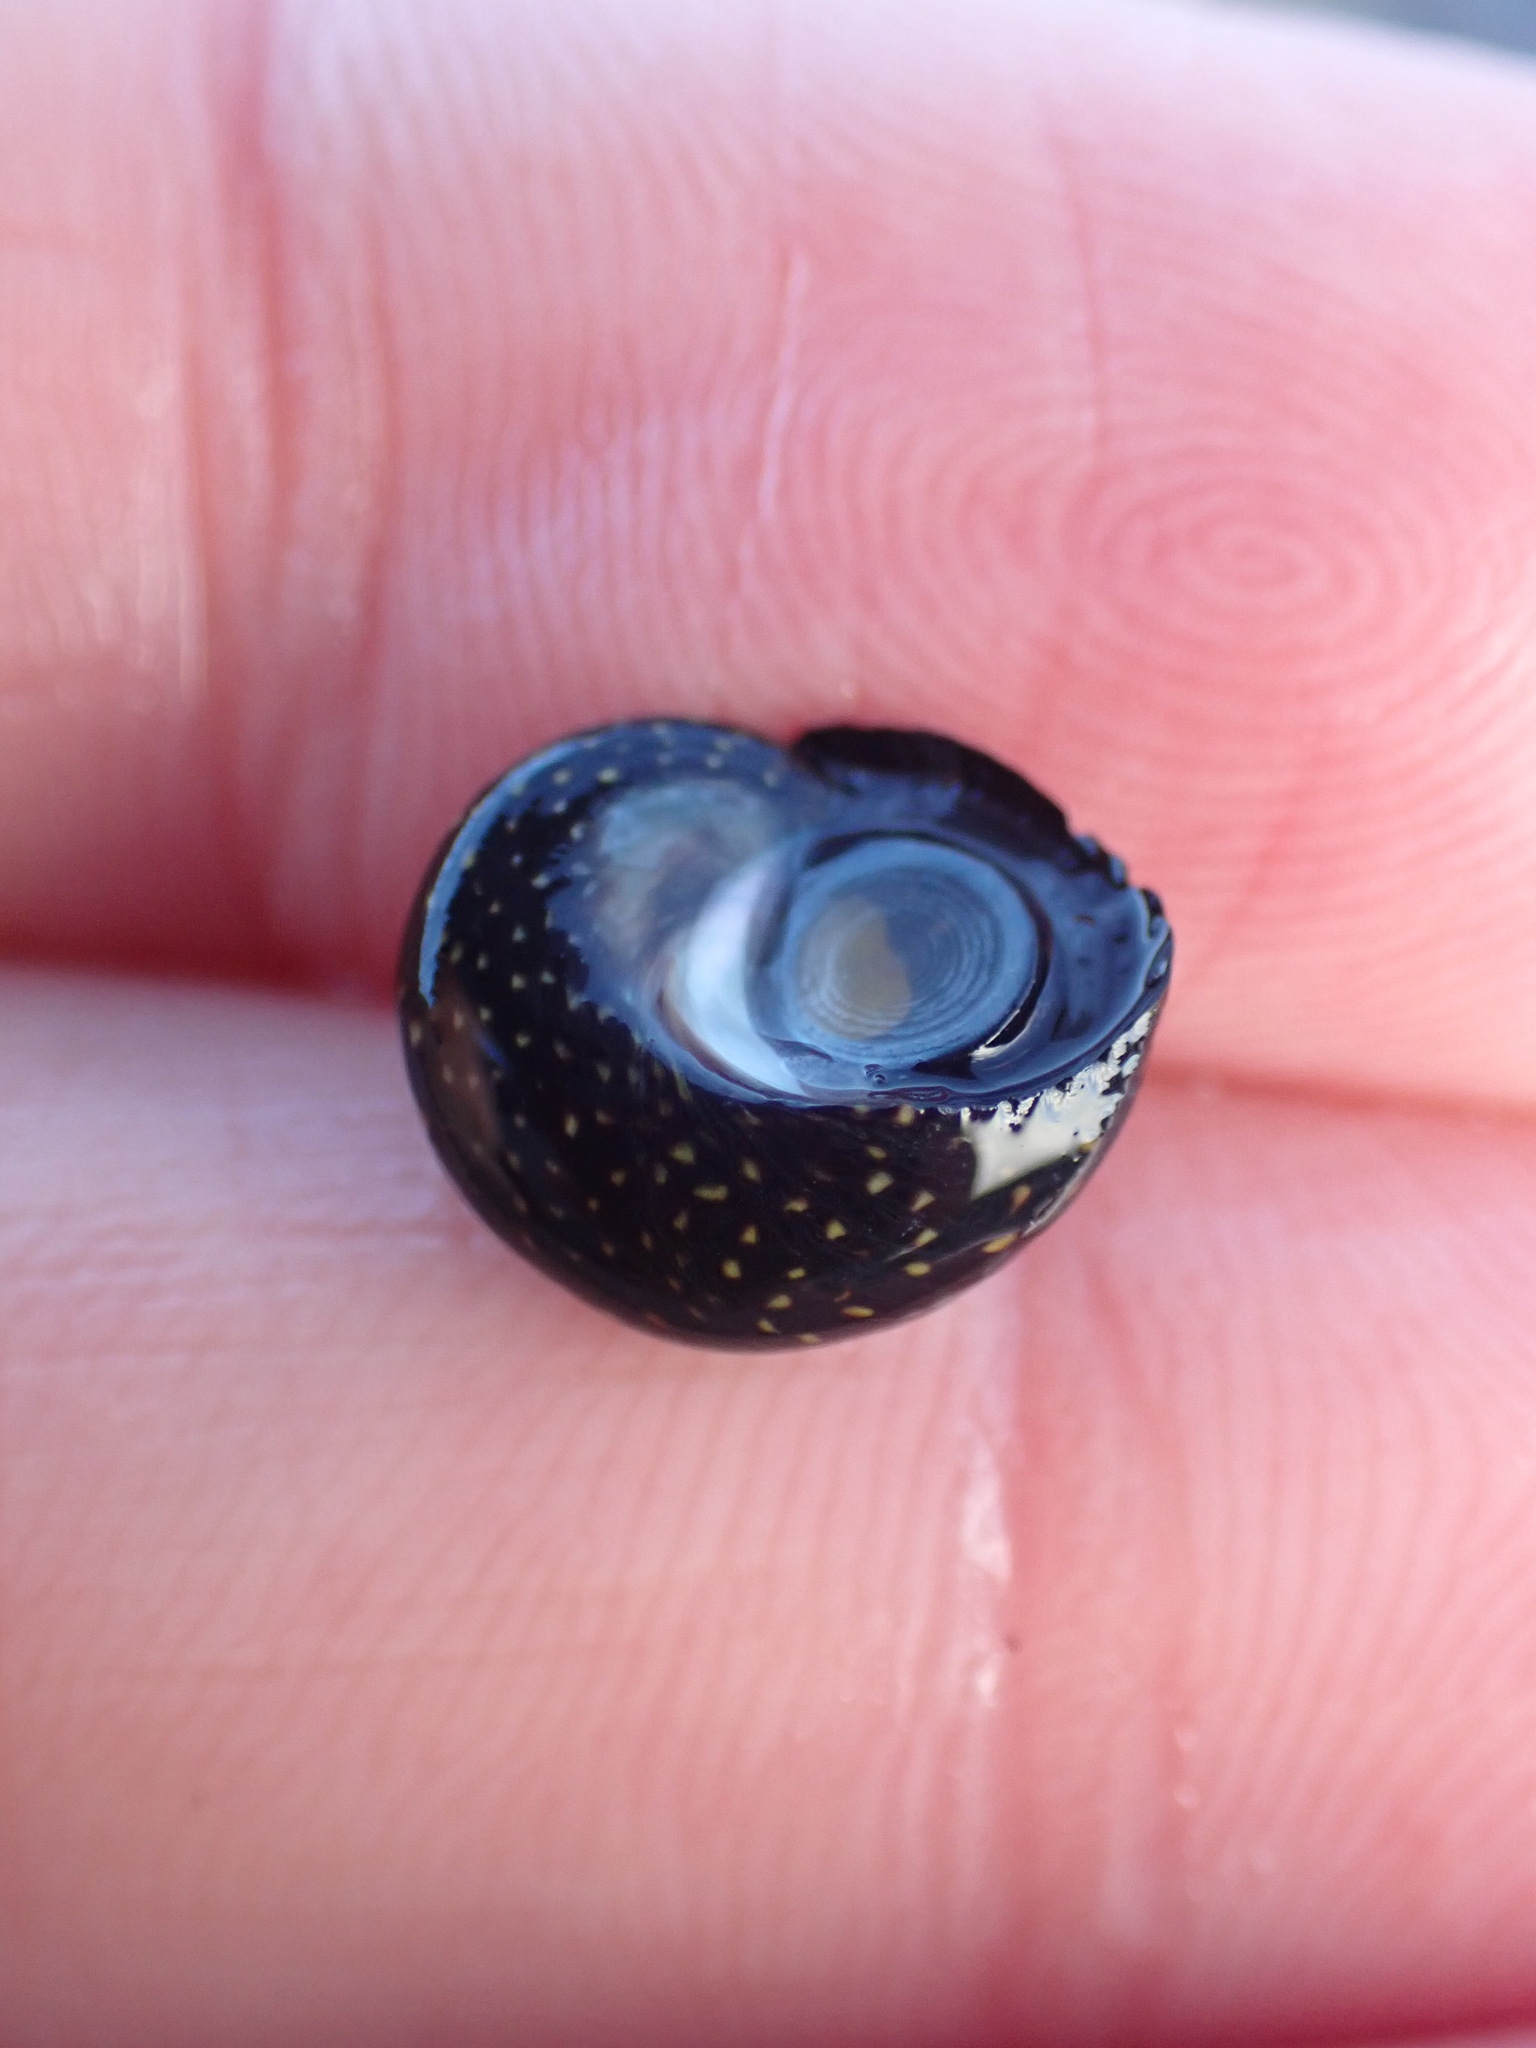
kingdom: Animalia
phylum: Mollusca
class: Gastropoda
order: Trochida
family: Trochidae
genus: Diloma
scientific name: Diloma aridum
